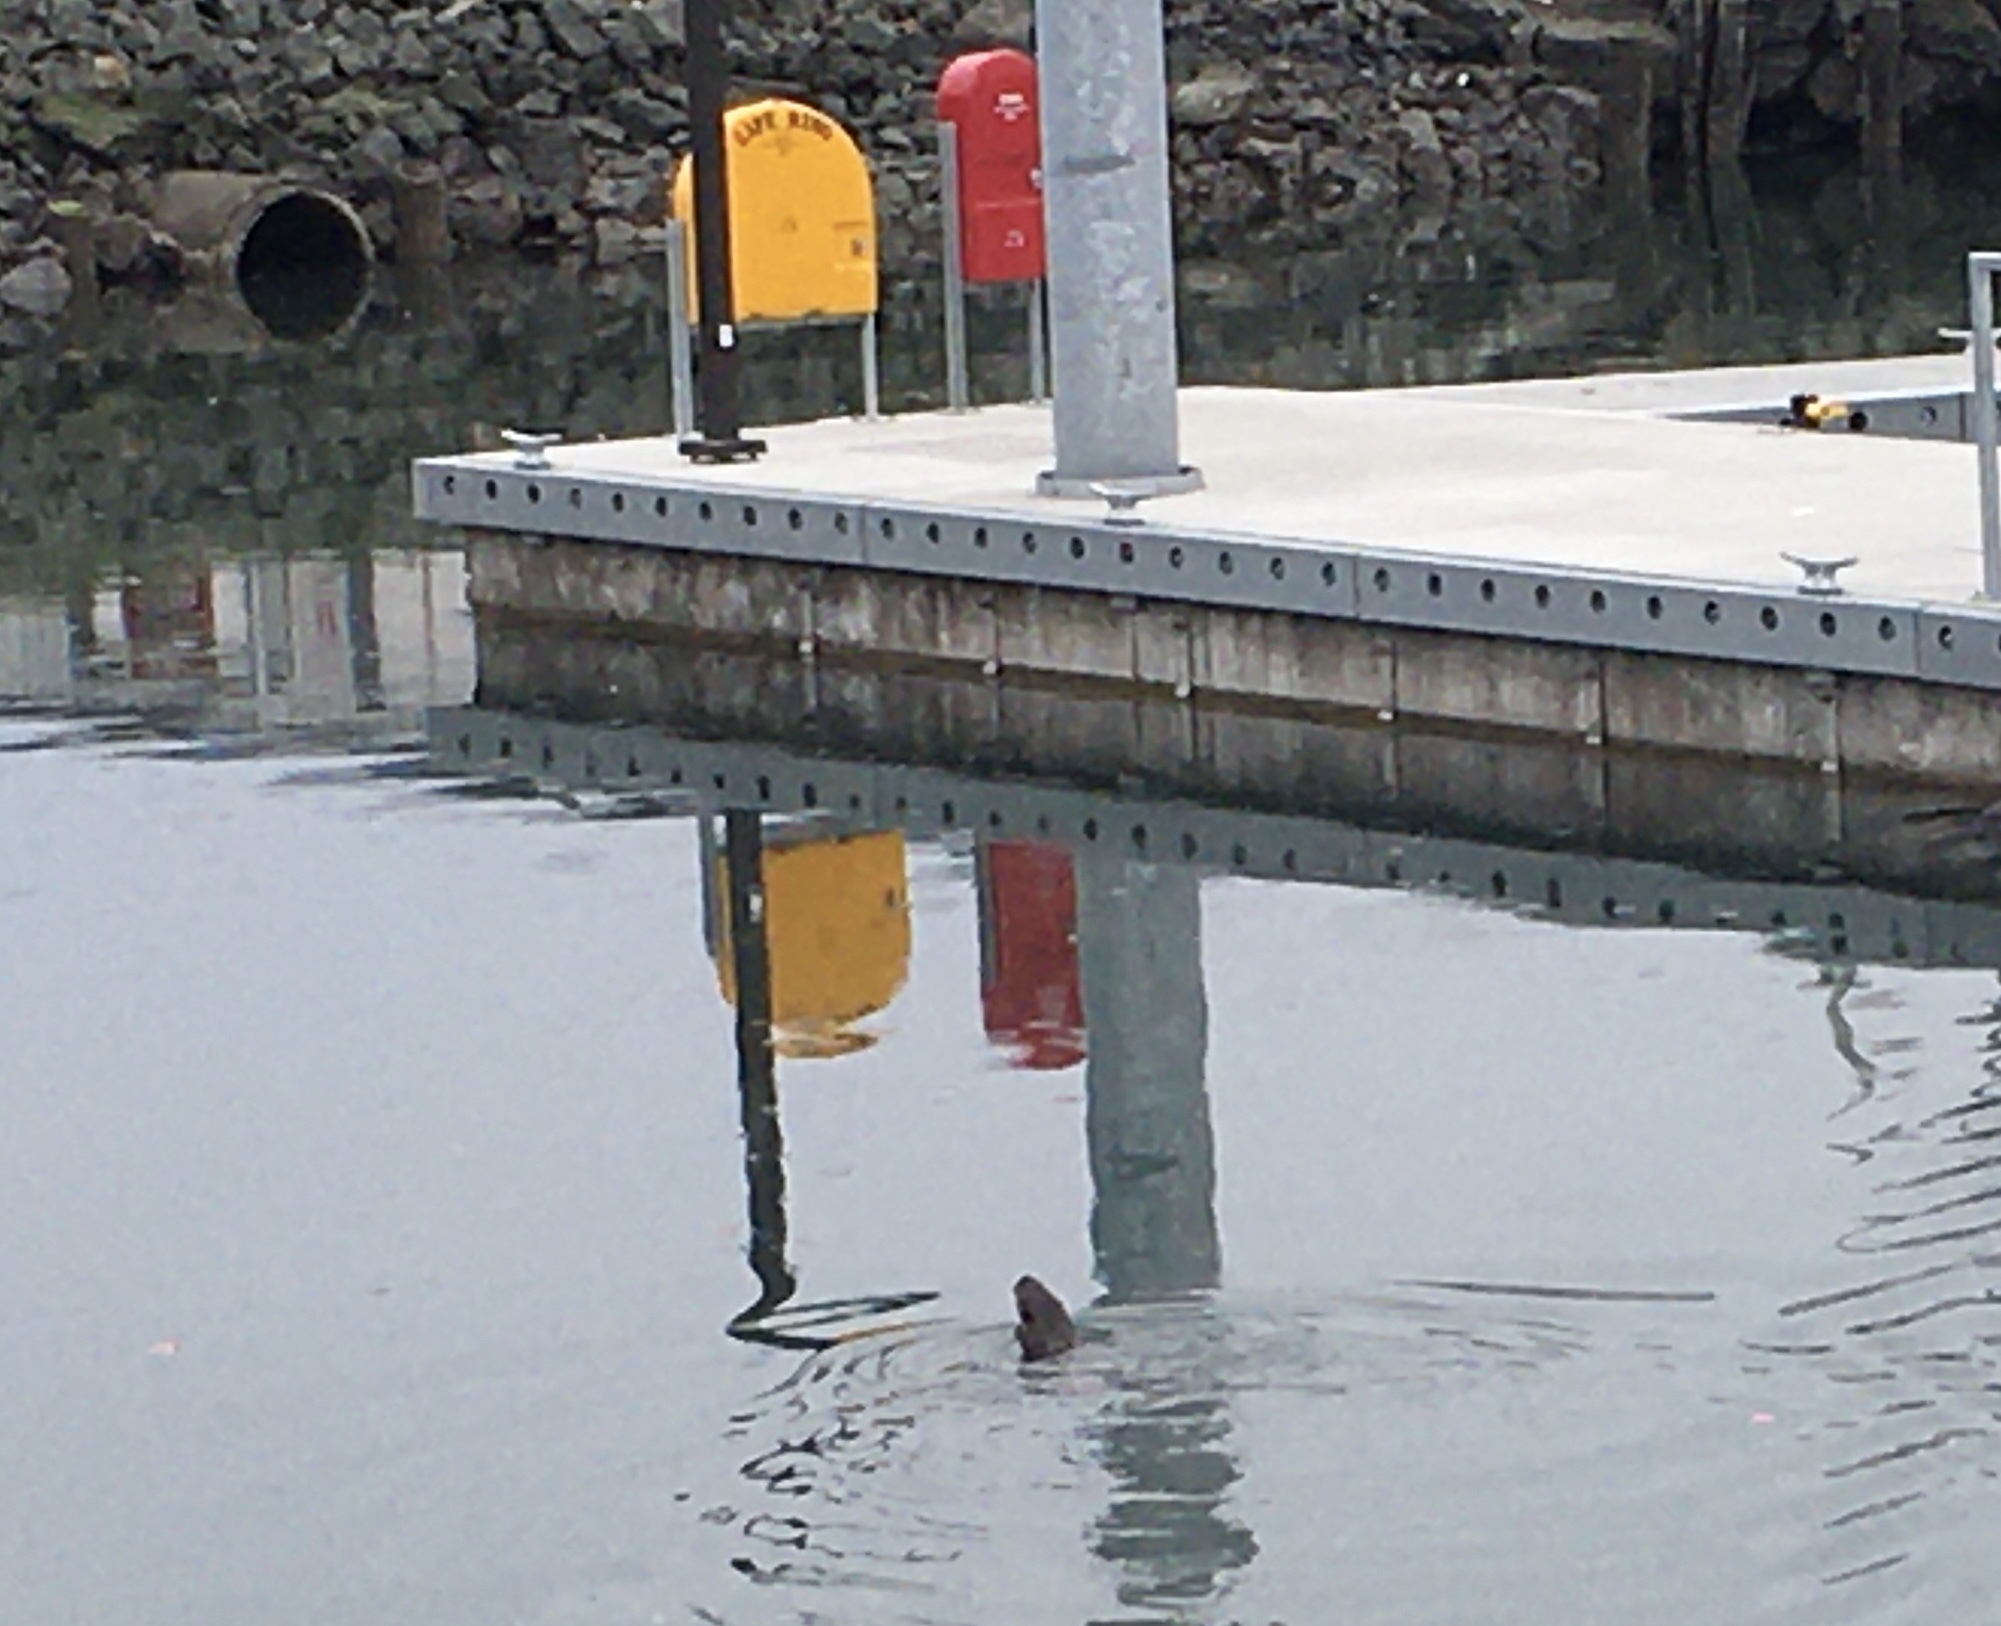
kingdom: Animalia
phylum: Chordata
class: Mammalia
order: Carnivora
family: Mustelidae
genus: Lontra
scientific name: Lontra canadensis
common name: North american river otter
